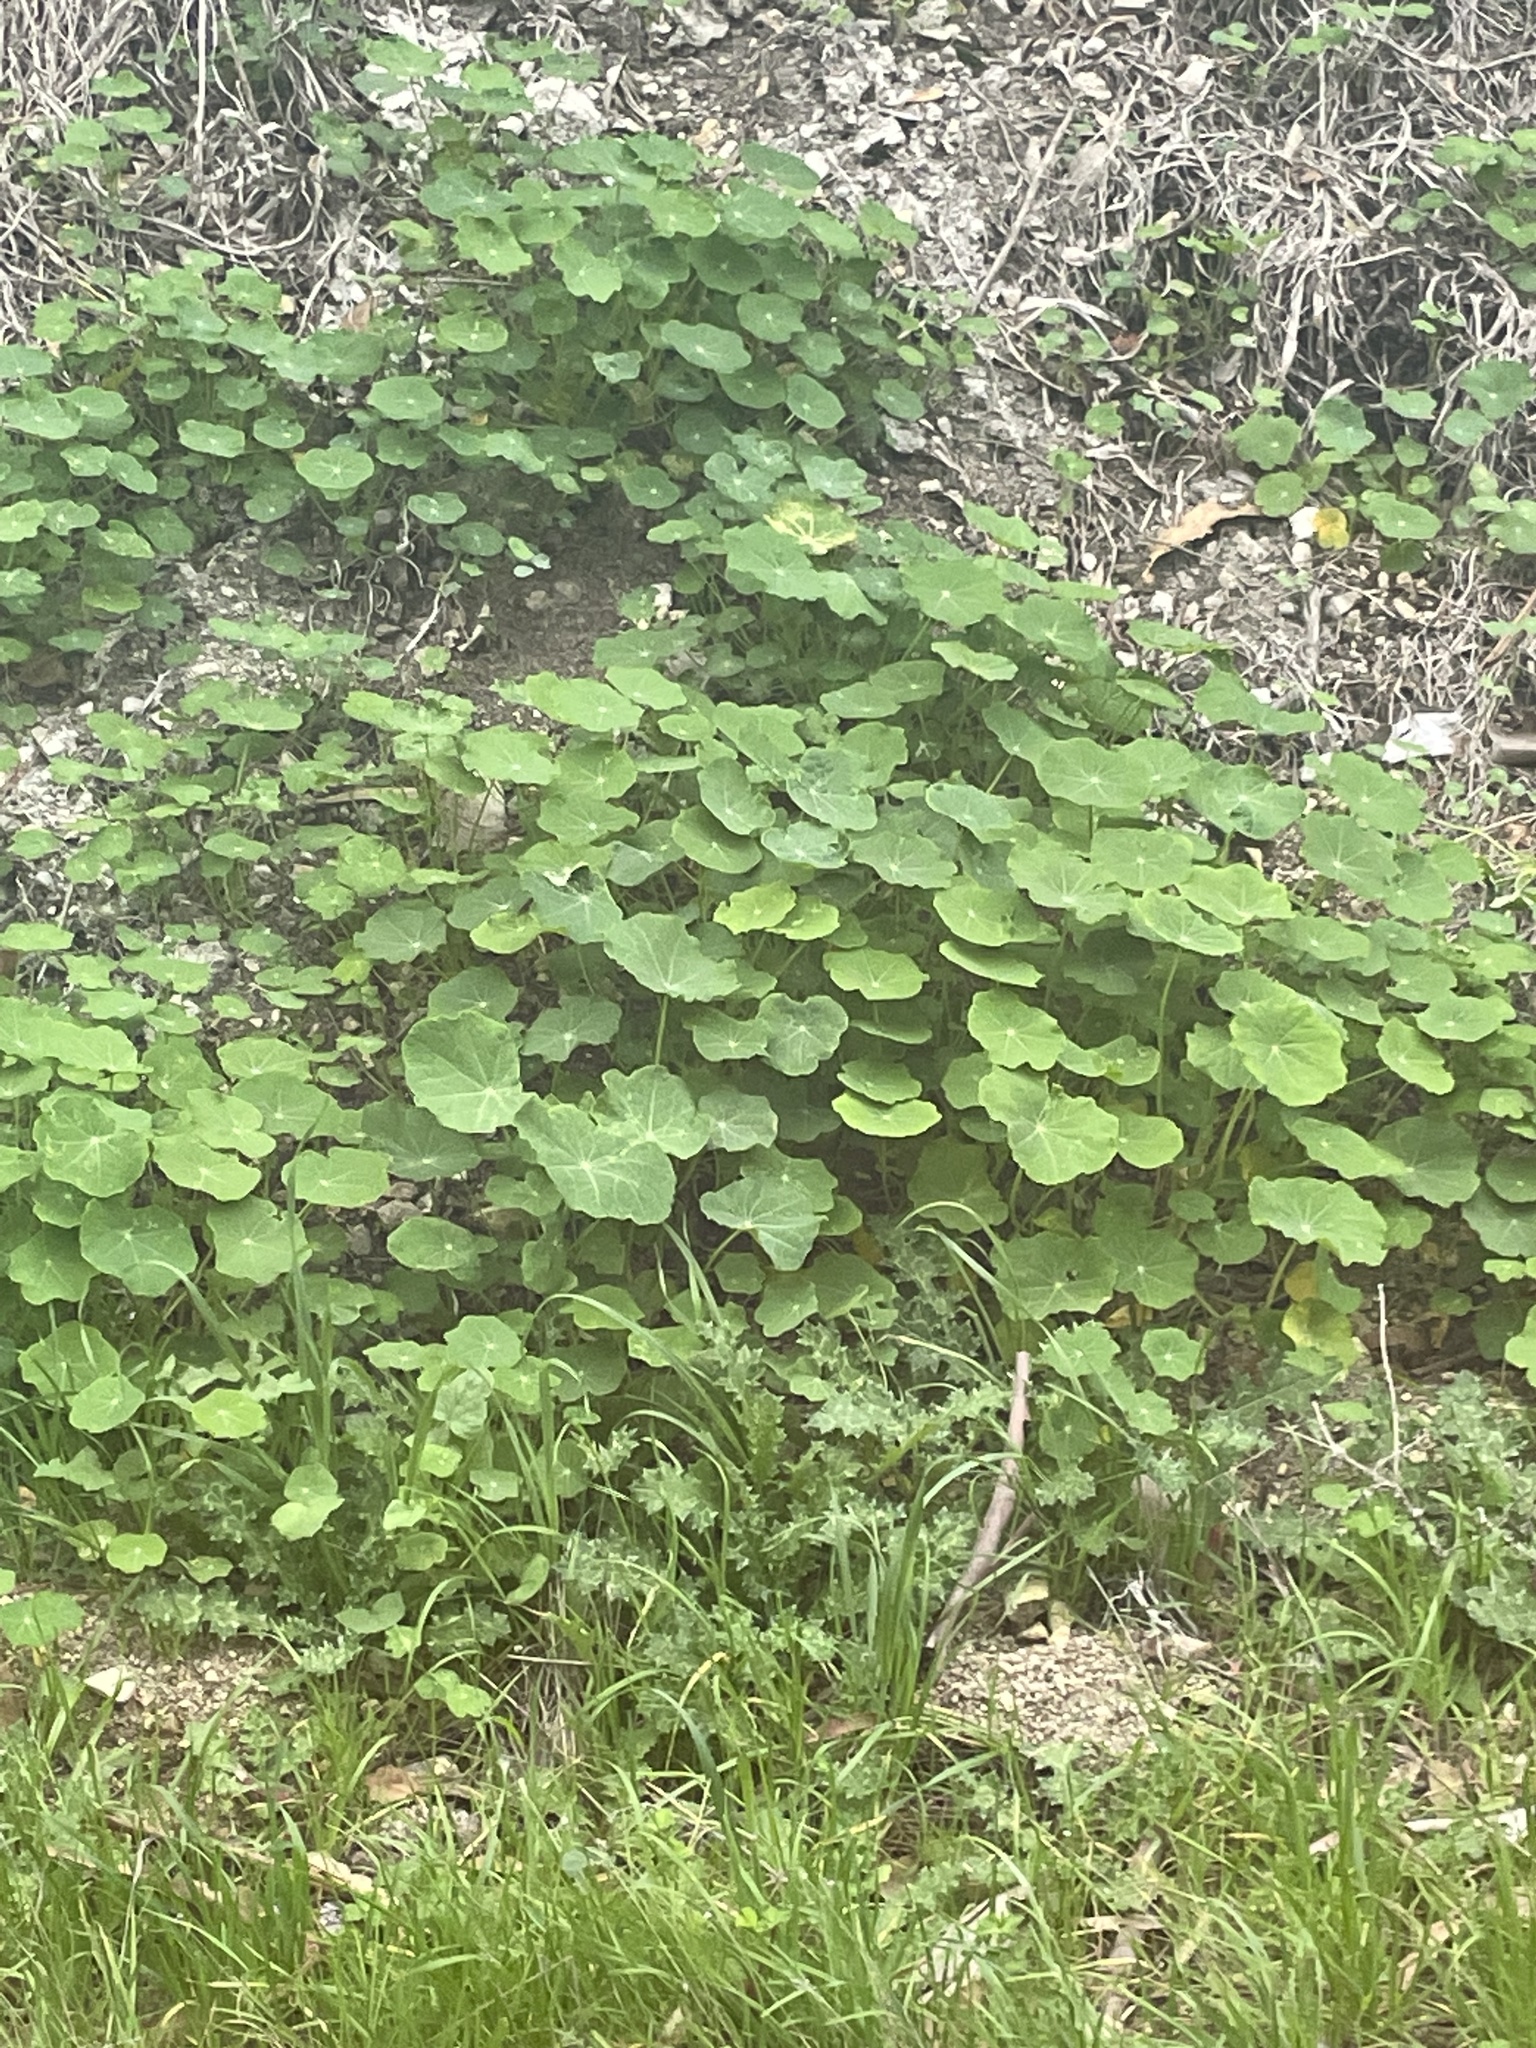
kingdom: Plantae
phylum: Tracheophyta
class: Magnoliopsida
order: Brassicales
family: Tropaeolaceae
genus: Tropaeolum
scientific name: Tropaeolum majus
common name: Nasturtium
